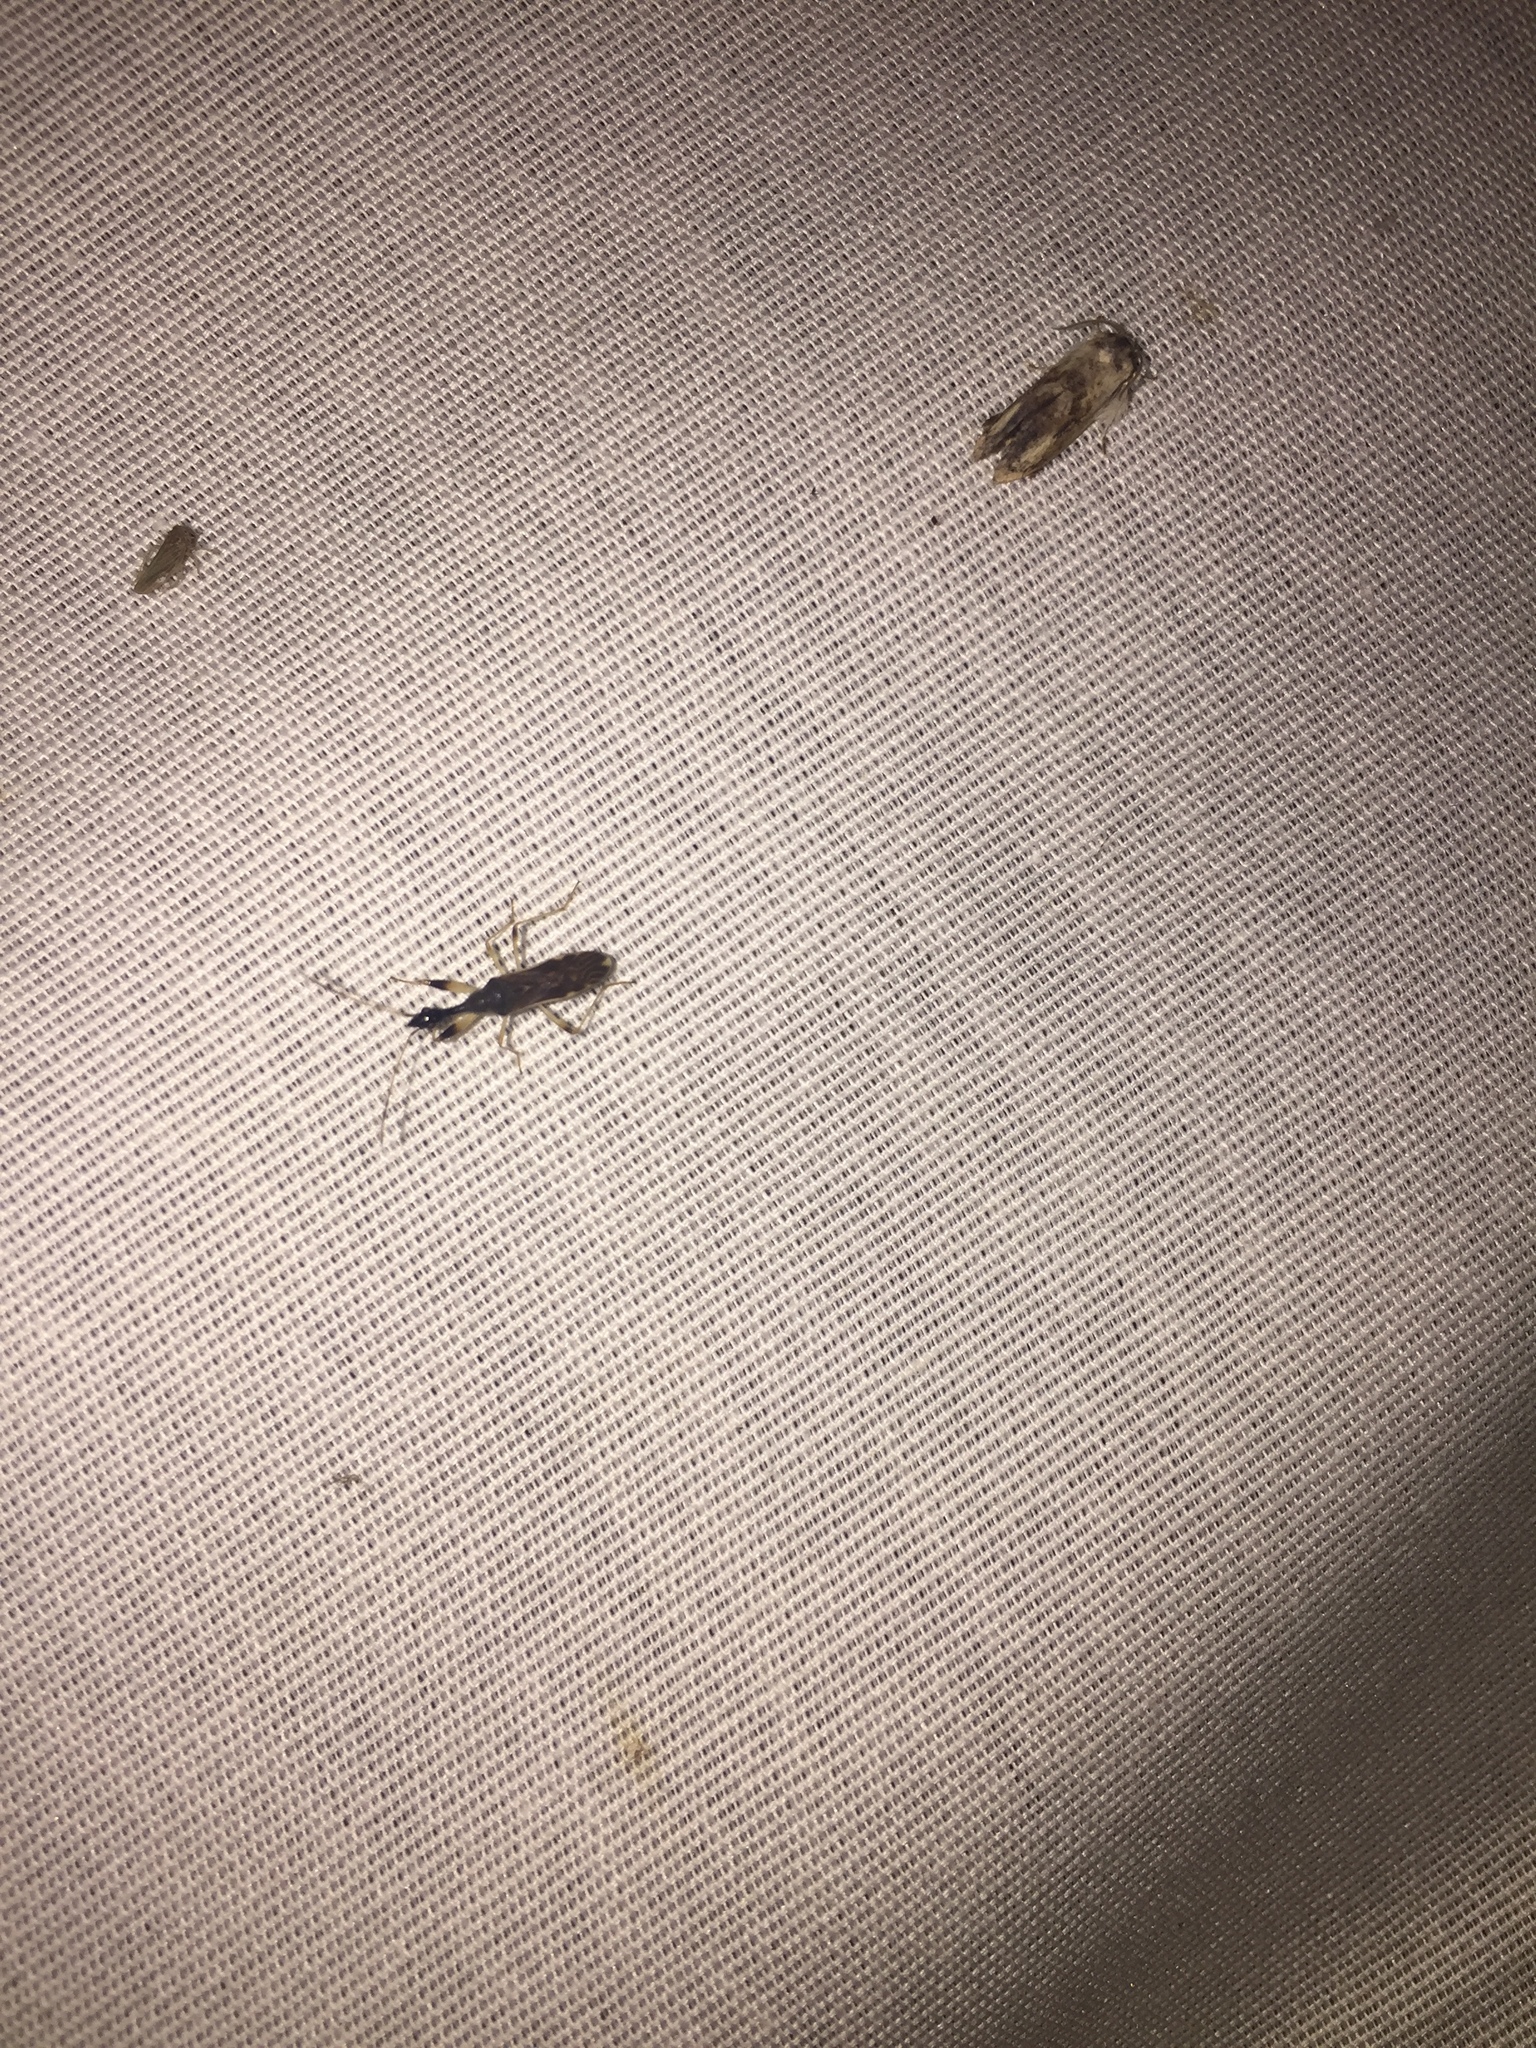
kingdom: Animalia
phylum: Arthropoda
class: Insecta
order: Hemiptera
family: Rhyparochromidae
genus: Myodocha
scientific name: Myodocha serripes
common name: Long-necked seed bug
